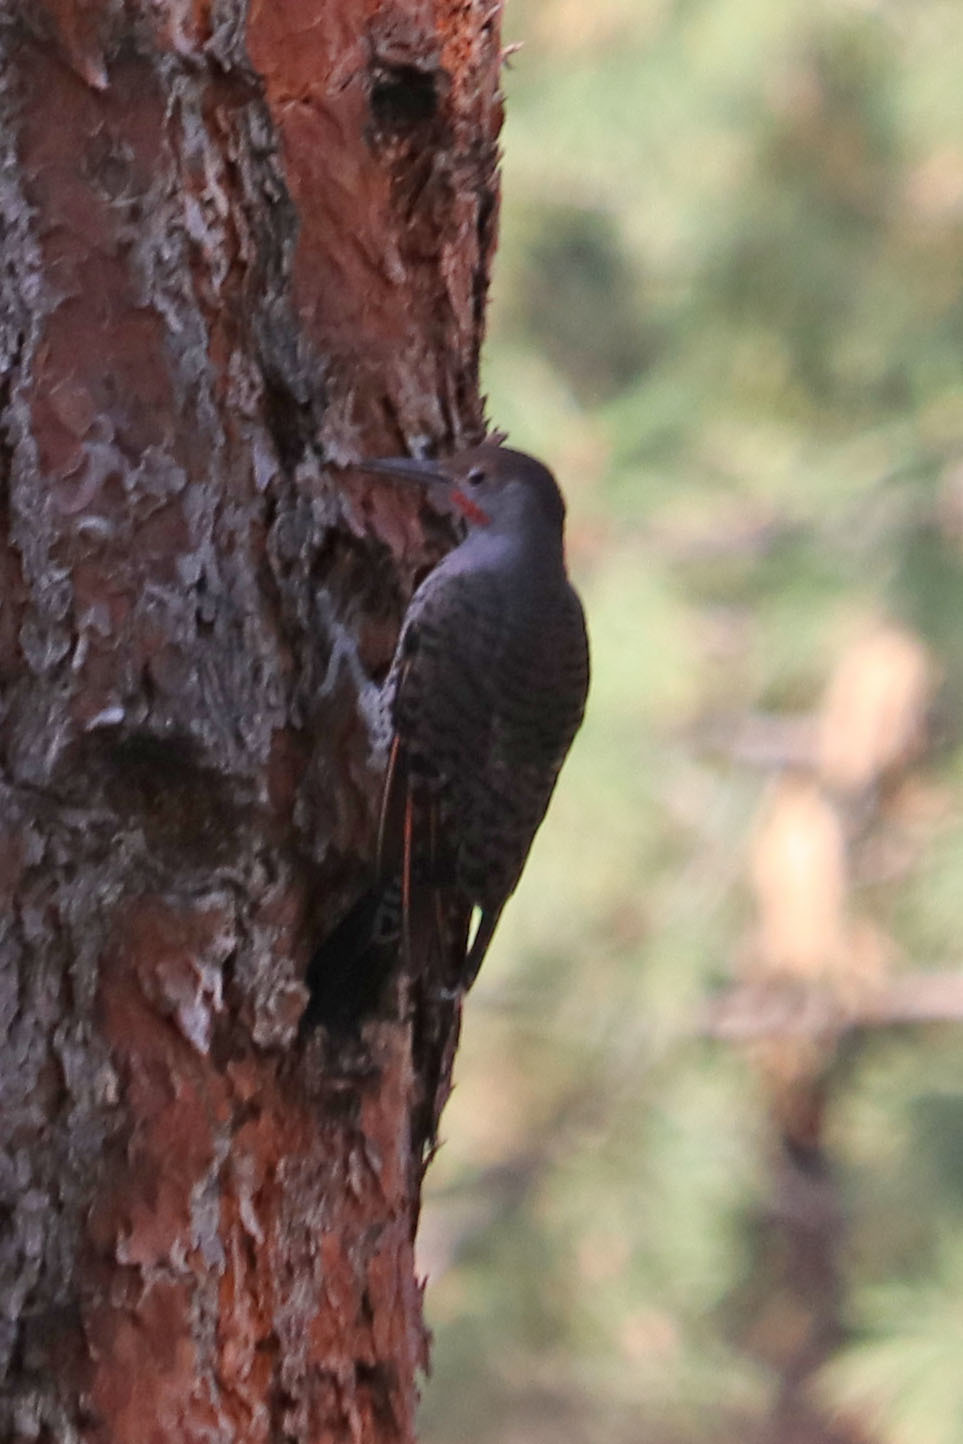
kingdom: Animalia
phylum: Chordata
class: Aves
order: Piciformes
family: Picidae
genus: Colaptes
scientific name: Colaptes auratus
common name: Northern flicker
